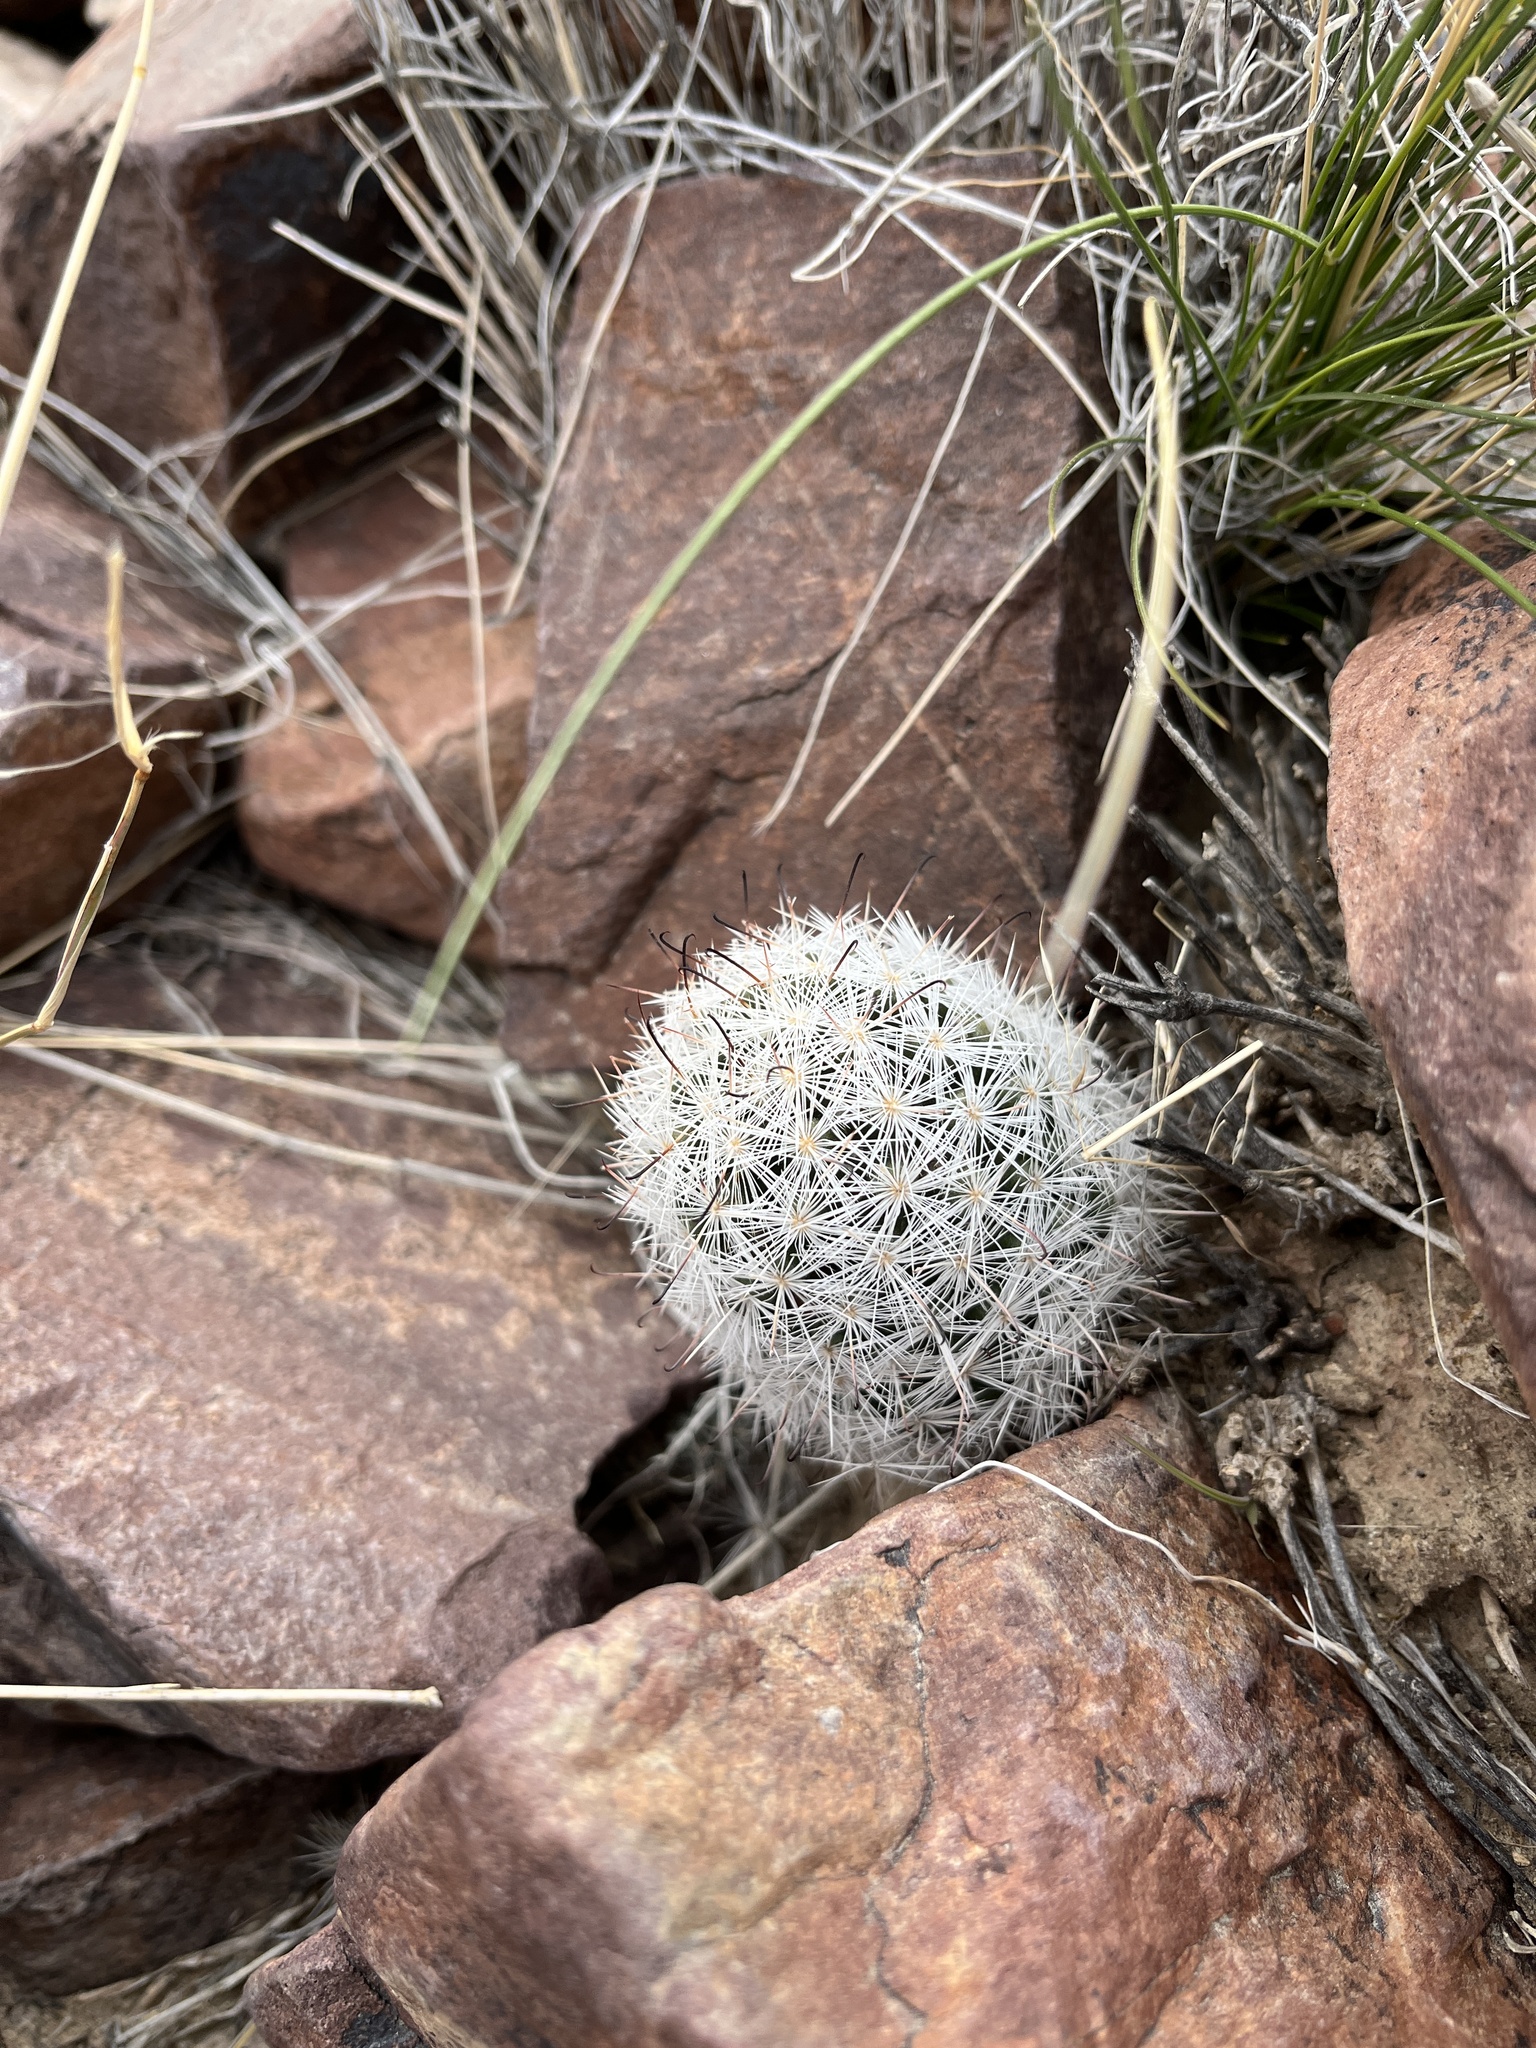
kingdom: Plantae
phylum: Tracheophyta
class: Magnoliopsida
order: Caryophyllales
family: Cactaceae
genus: Cochemiea
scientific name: Cochemiea tetrancistra
